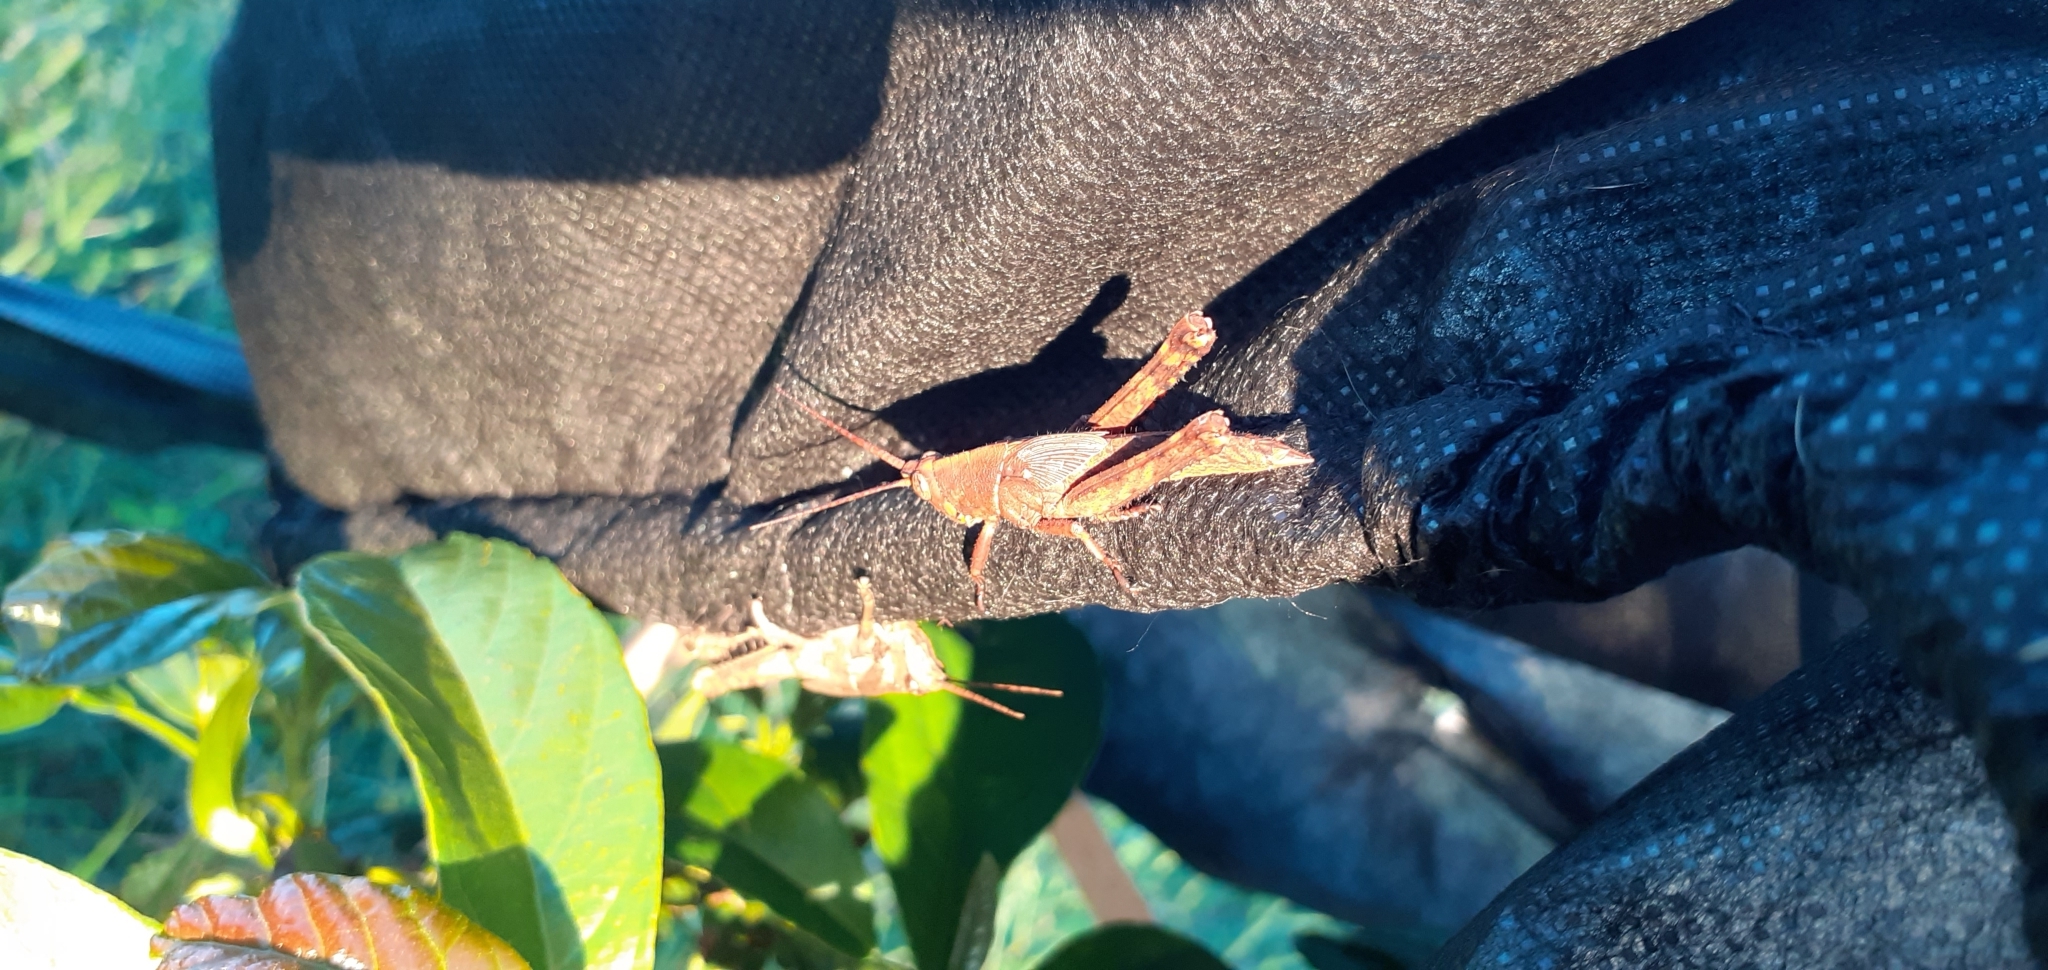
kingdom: Animalia
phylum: Arthropoda
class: Insecta
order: Orthoptera
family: Romaleidae
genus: Coryacris
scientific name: Coryacris angustipennis
